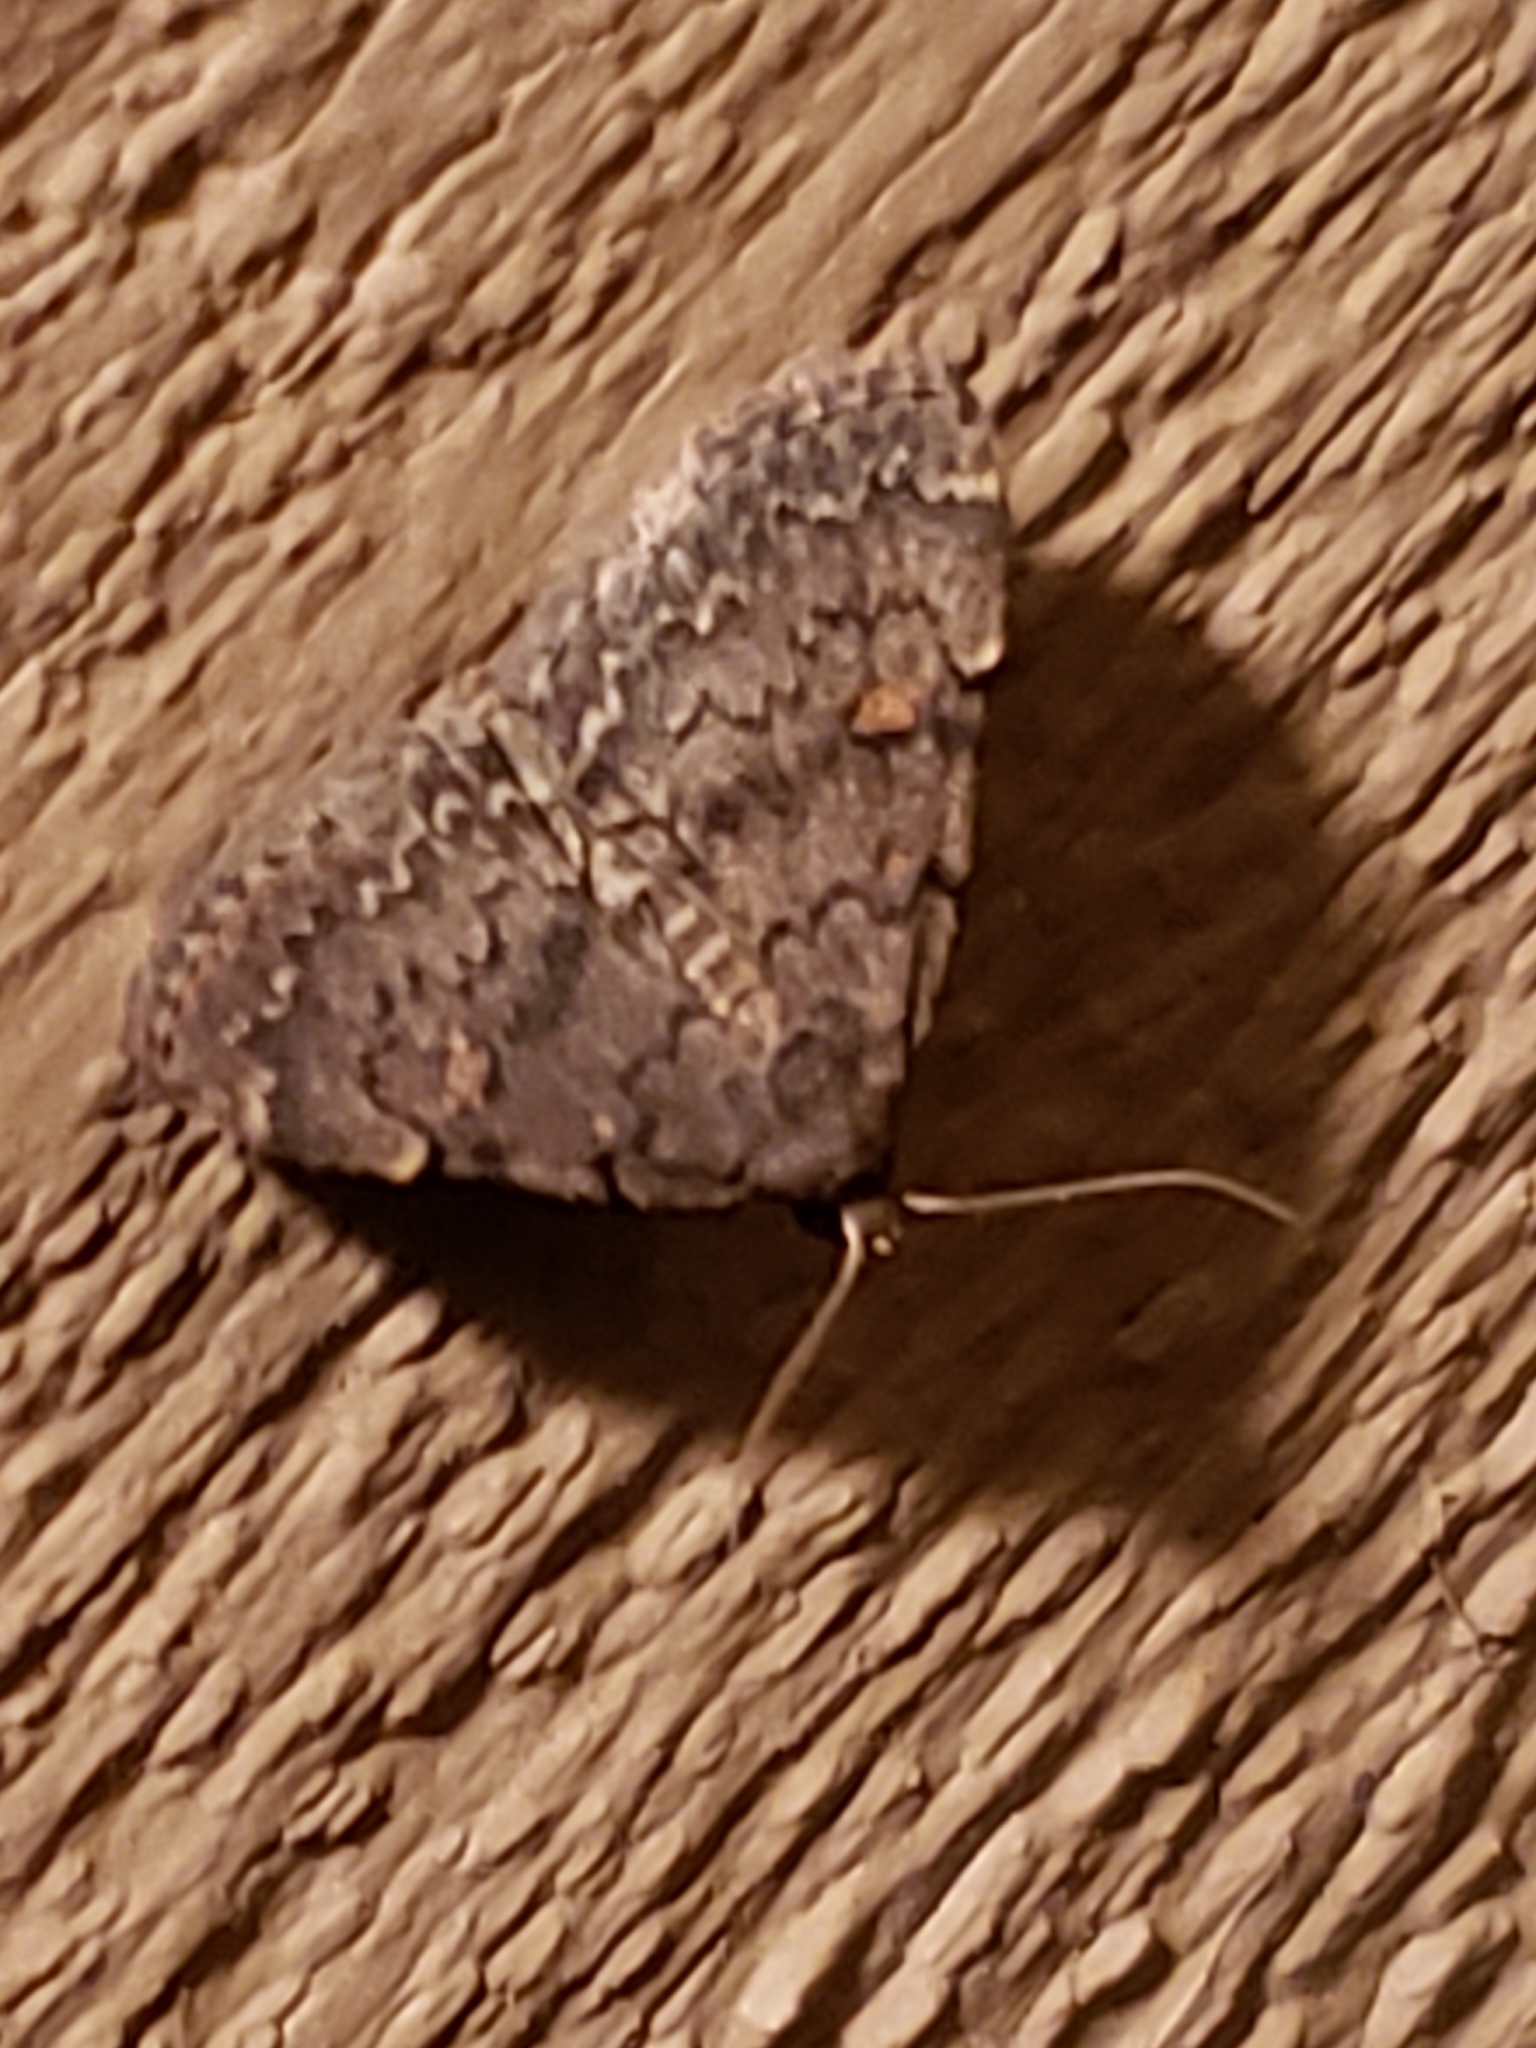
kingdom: Animalia
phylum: Arthropoda
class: Insecta
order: Lepidoptera
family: Erebidae
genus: Idia
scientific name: Idia aemula
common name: Common idia moth
